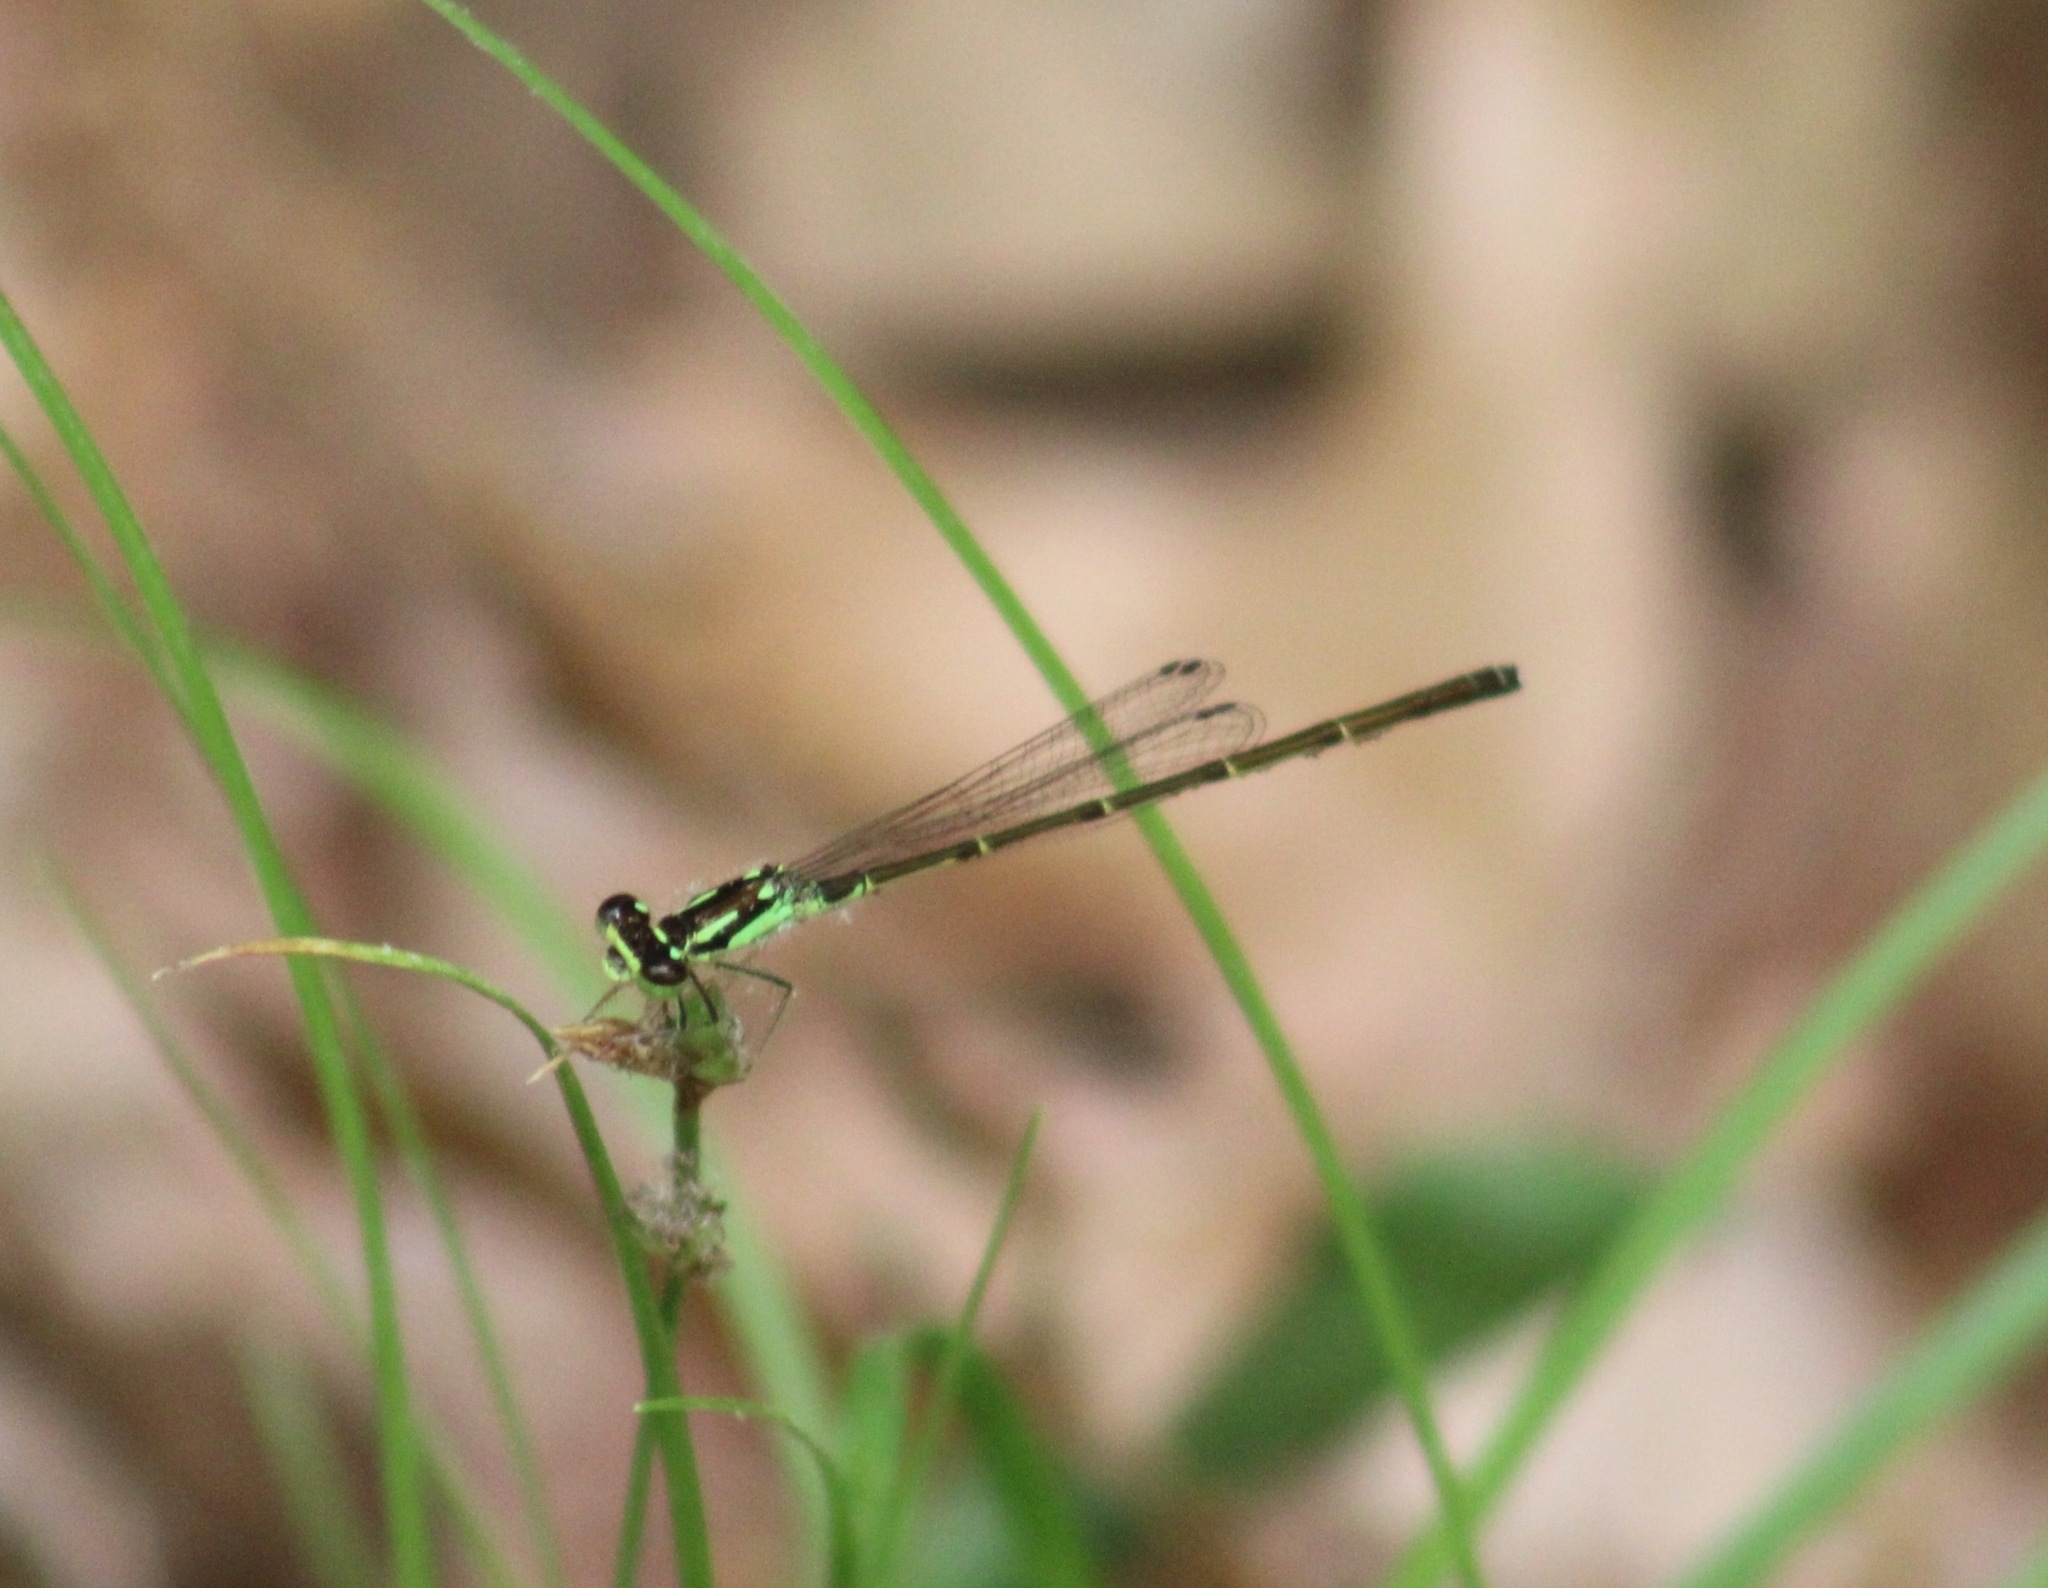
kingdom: Animalia
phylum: Arthropoda
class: Insecta
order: Odonata
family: Coenagrionidae
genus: Ischnura
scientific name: Ischnura posita
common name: Fragile forktail
